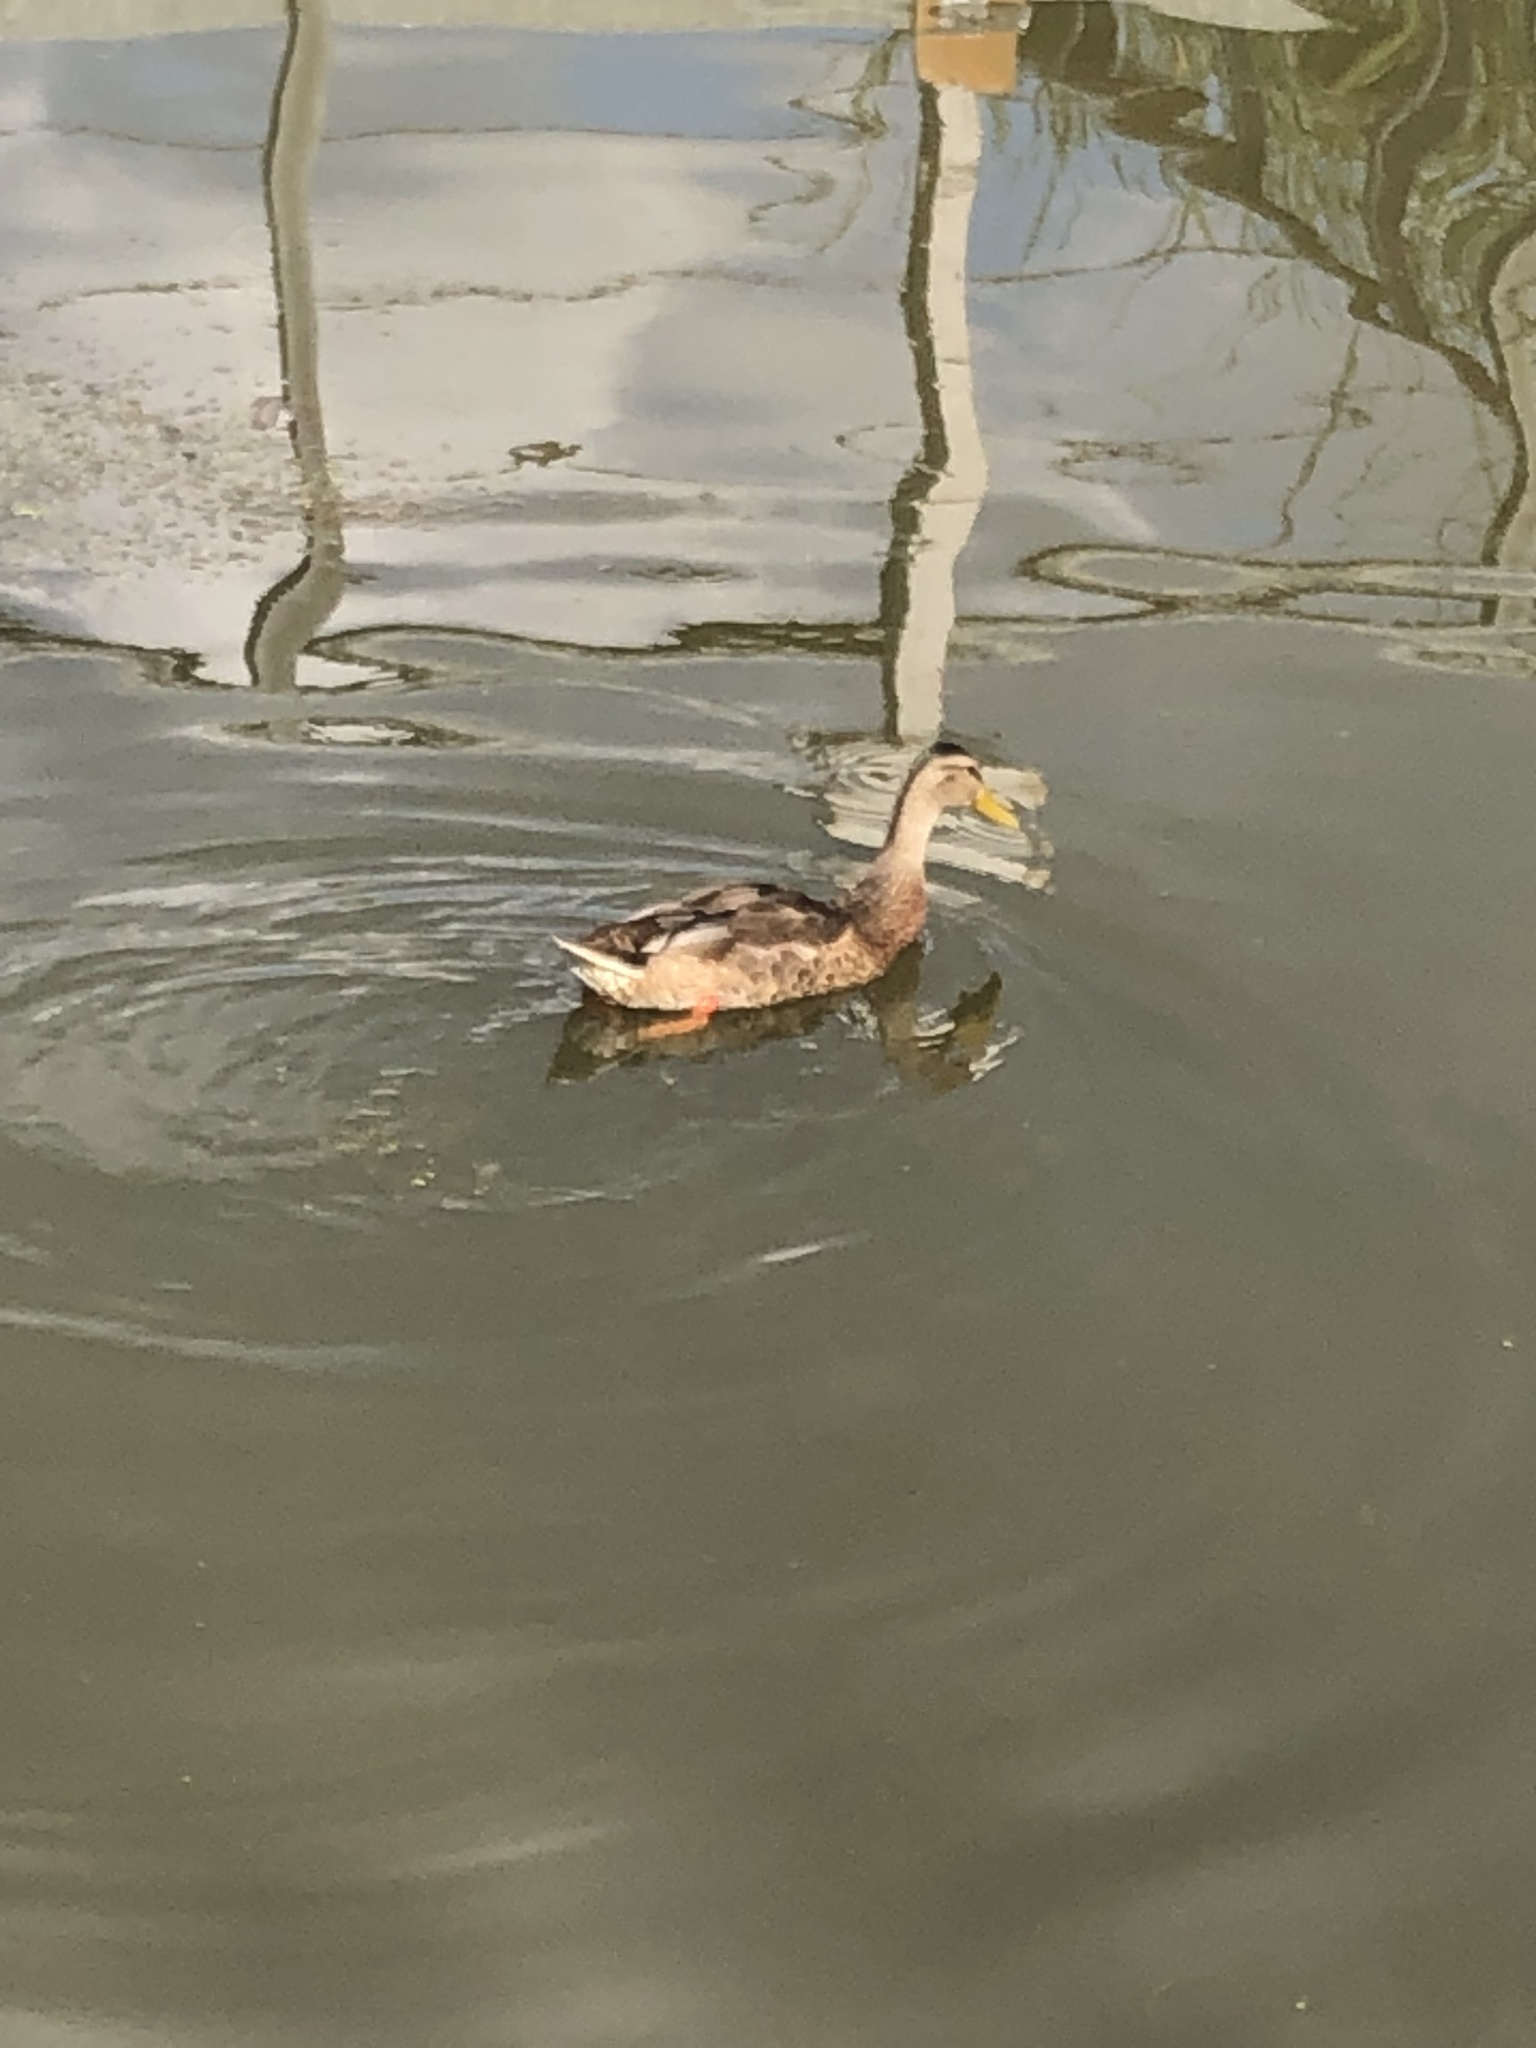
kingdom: Animalia
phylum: Chordata
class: Aves
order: Anseriformes
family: Anatidae
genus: Anas
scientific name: Anas platyrhynchos
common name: Mallard
